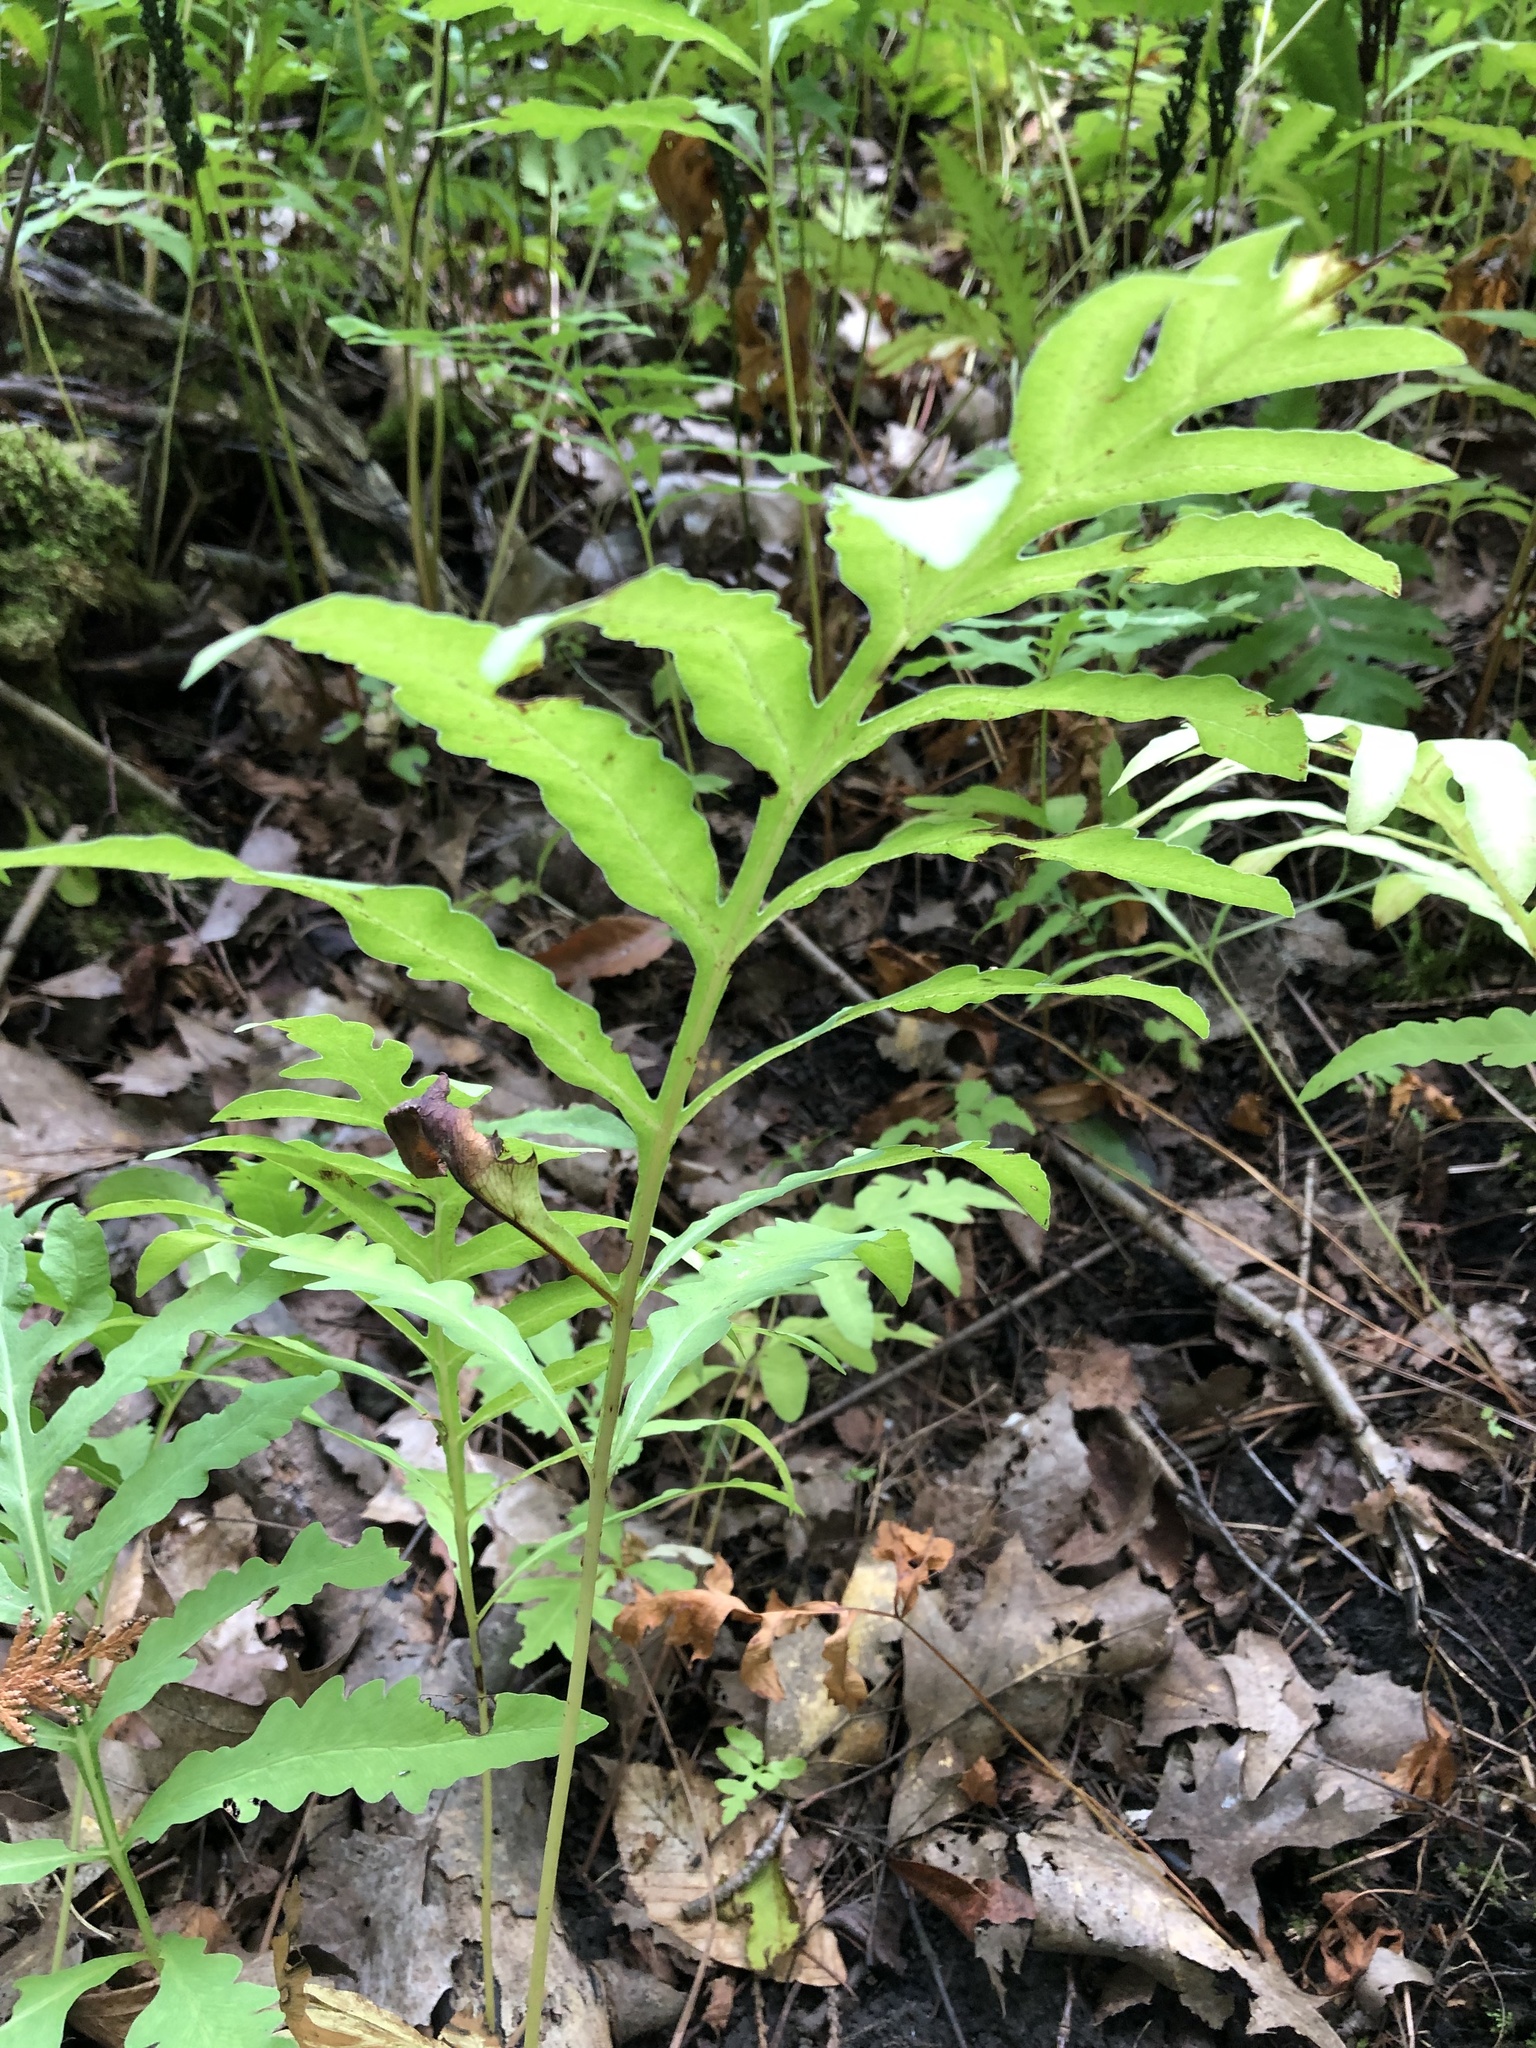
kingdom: Plantae
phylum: Tracheophyta
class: Polypodiopsida
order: Polypodiales
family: Onocleaceae
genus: Onoclea
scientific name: Onoclea sensibilis
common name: Sensitive fern
